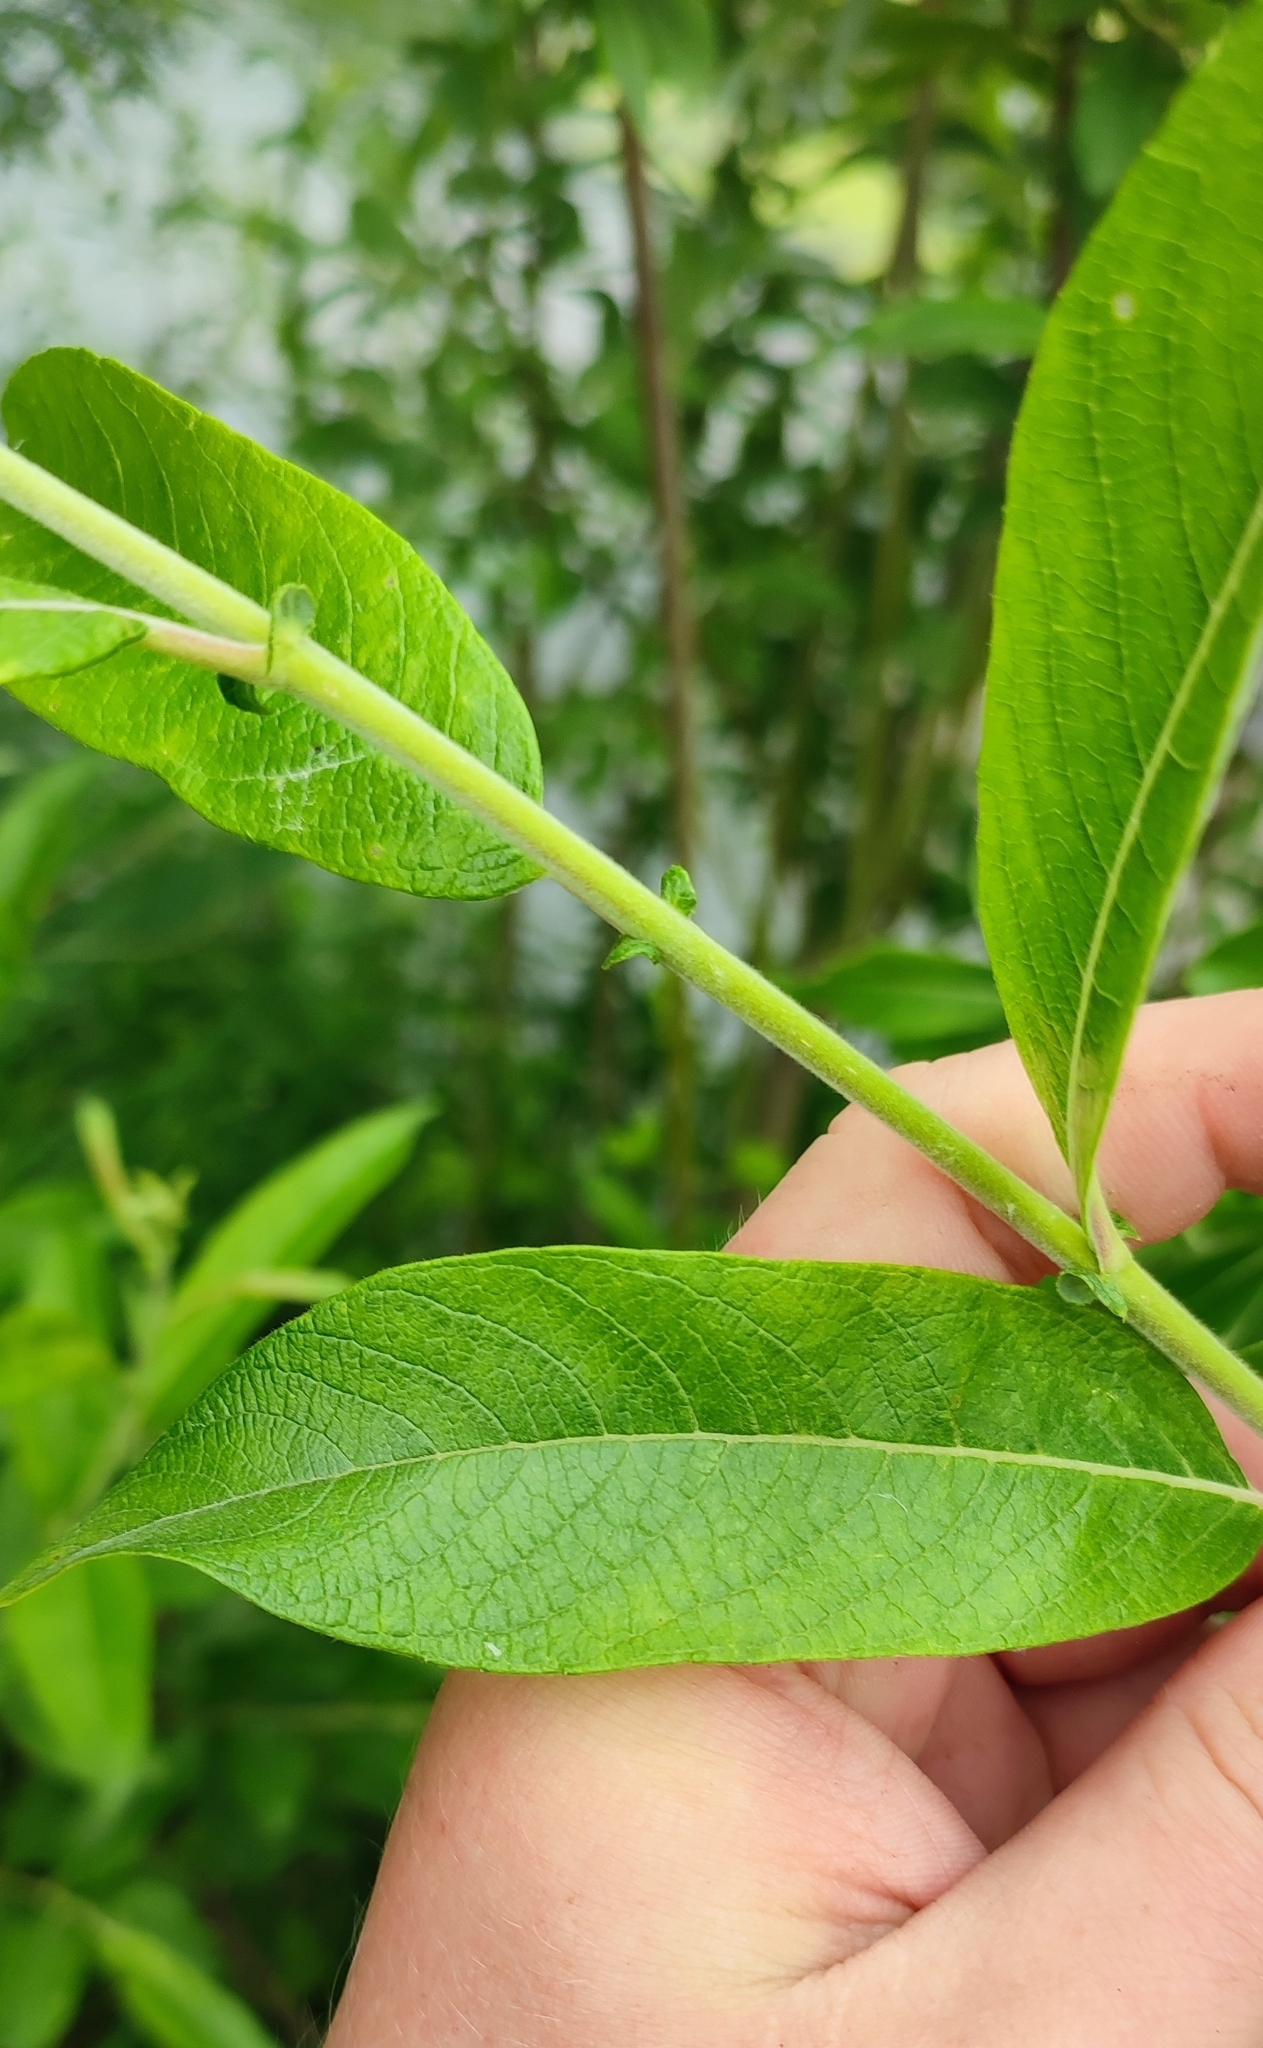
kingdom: Plantae
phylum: Tracheophyta
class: Magnoliopsida
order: Malpighiales
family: Salicaceae
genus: Salix
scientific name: Salix cinerea
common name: Common sallow
